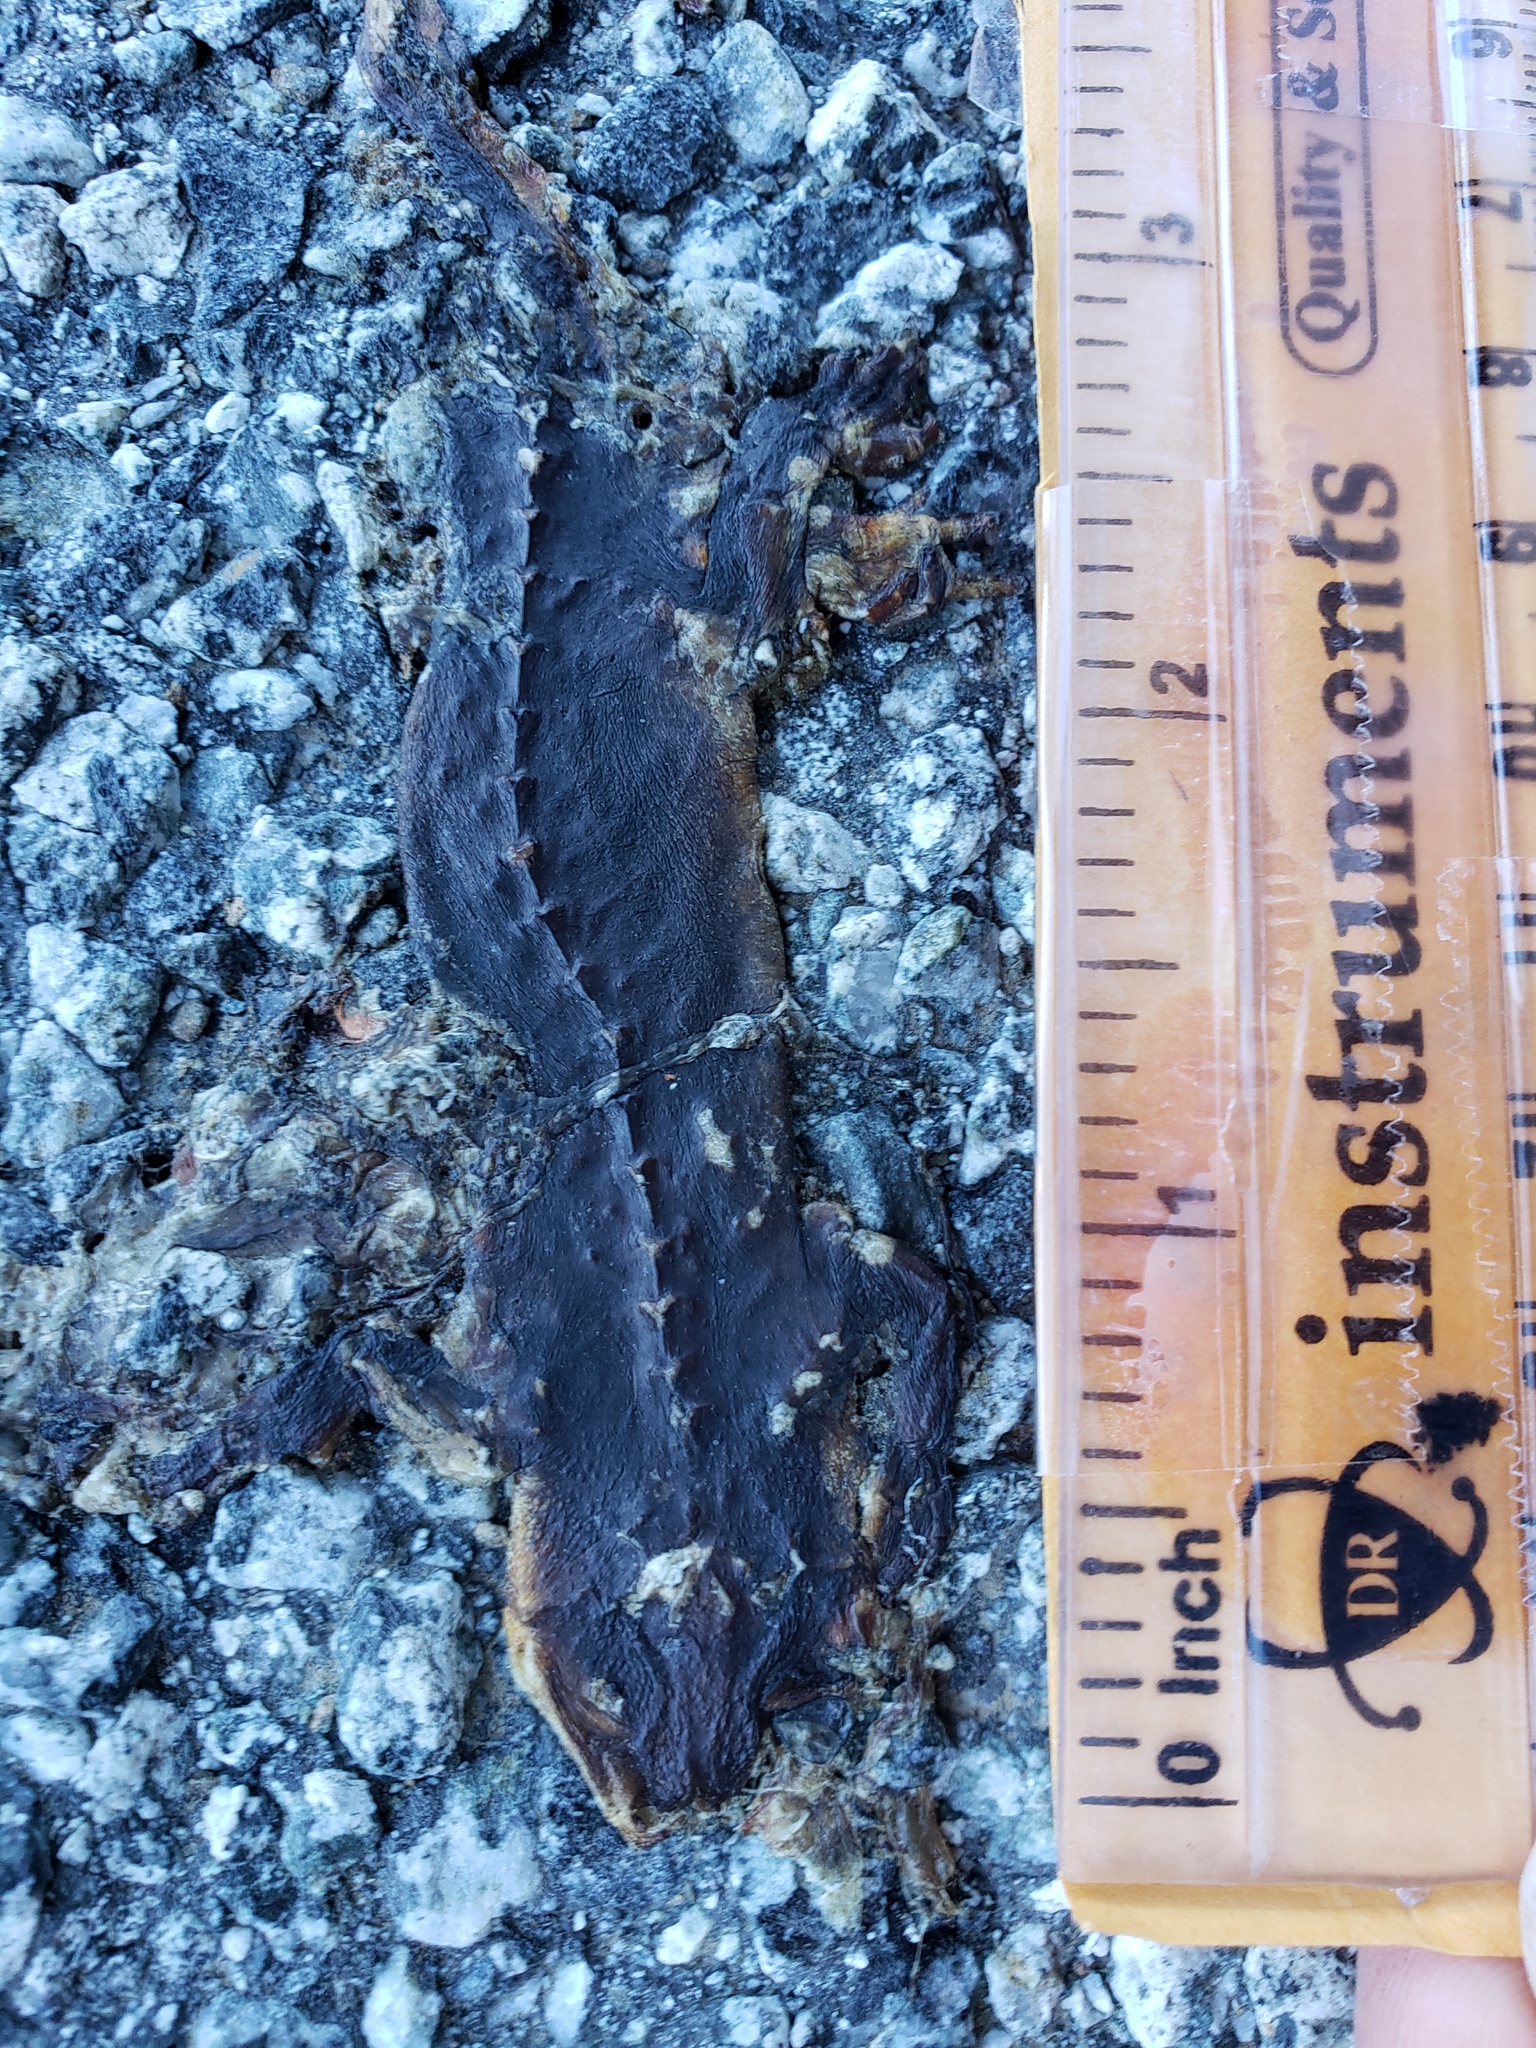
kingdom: Animalia
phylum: Chordata
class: Amphibia
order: Caudata
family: Salamandridae
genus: Taricha
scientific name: Taricha
